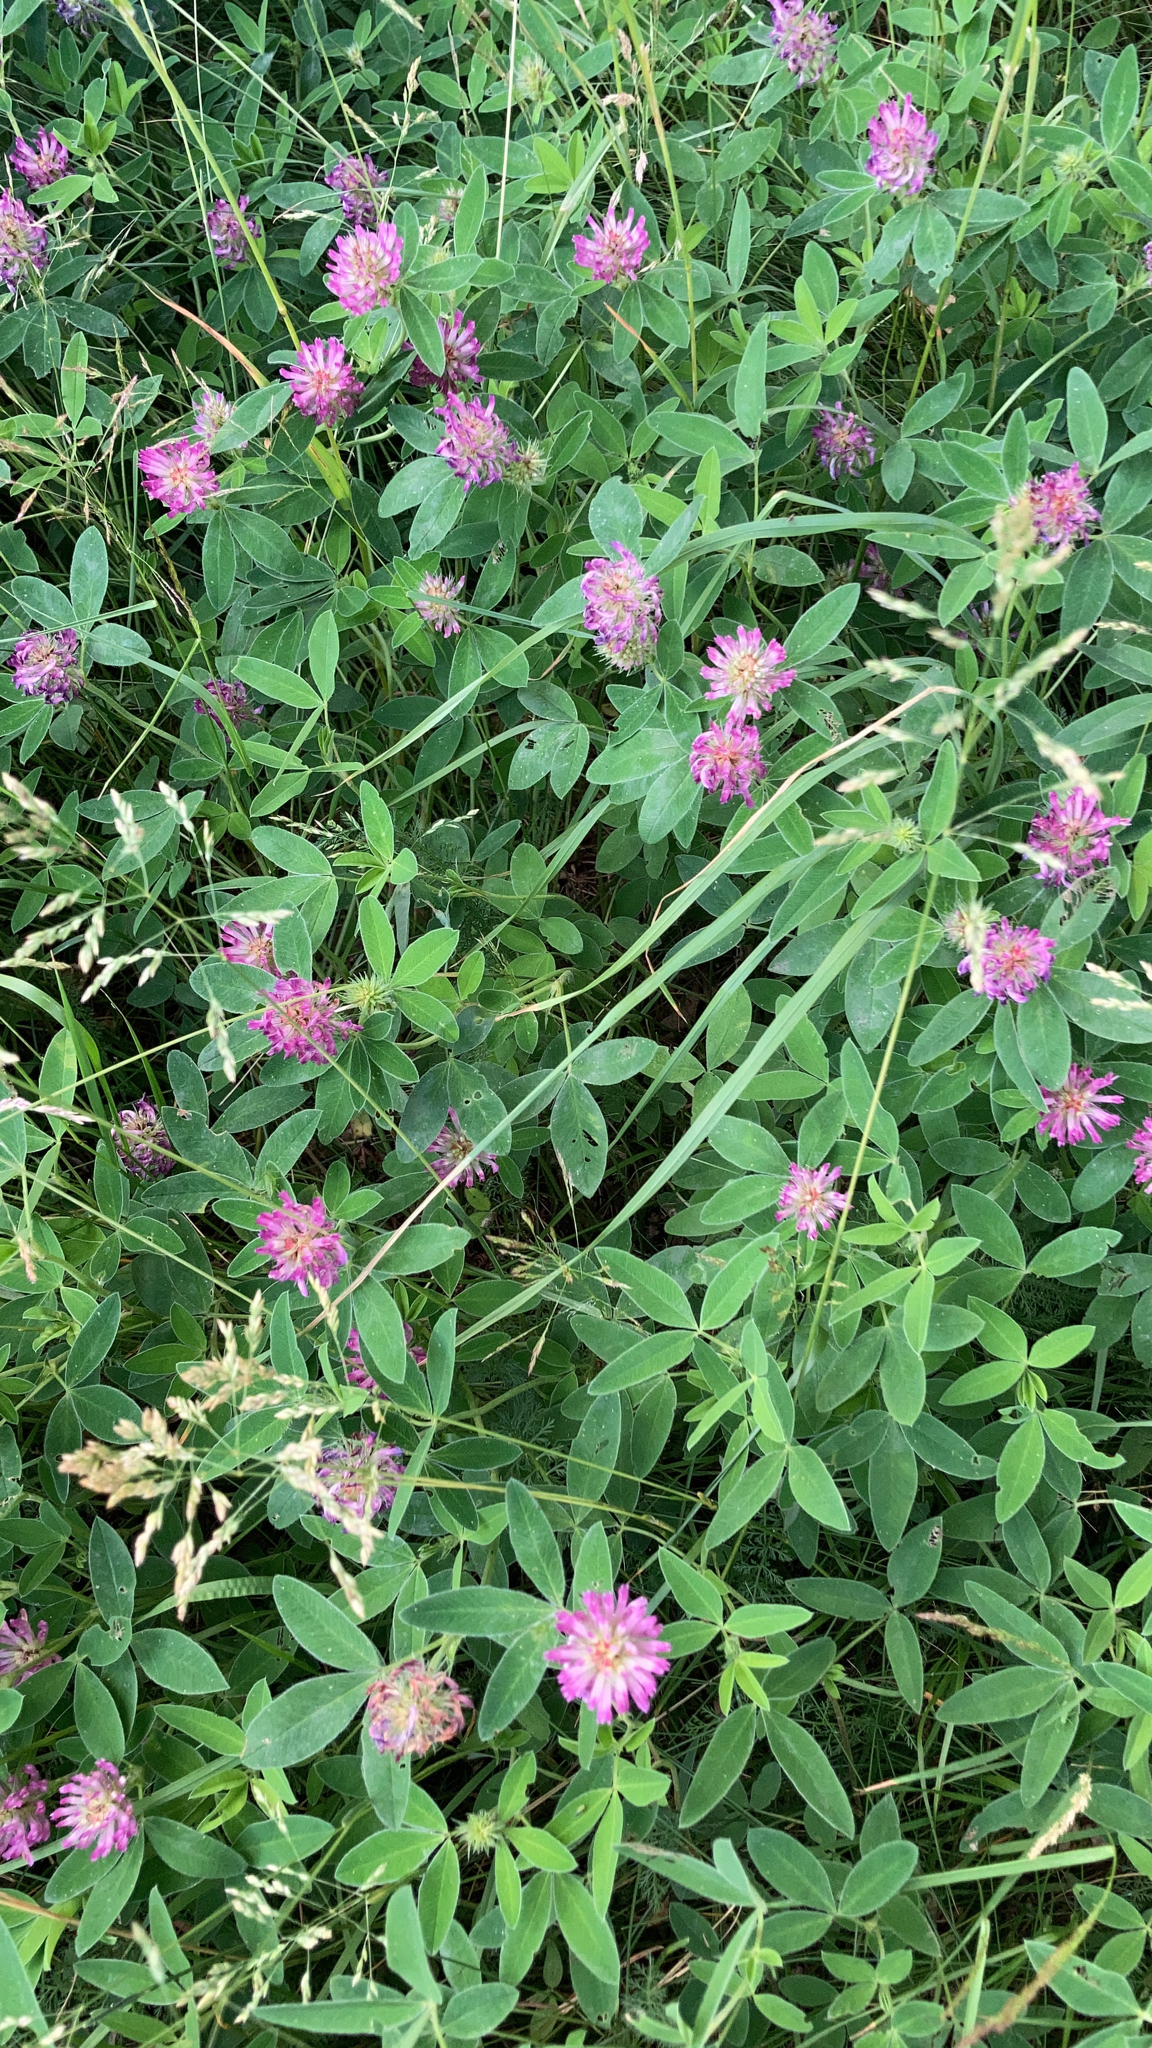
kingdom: Plantae
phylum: Tracheophyta
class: Magnoliopsida
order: Fabales
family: Fabaceae
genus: Trifolium
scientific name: Trifolium medium
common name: Zigzag clover
